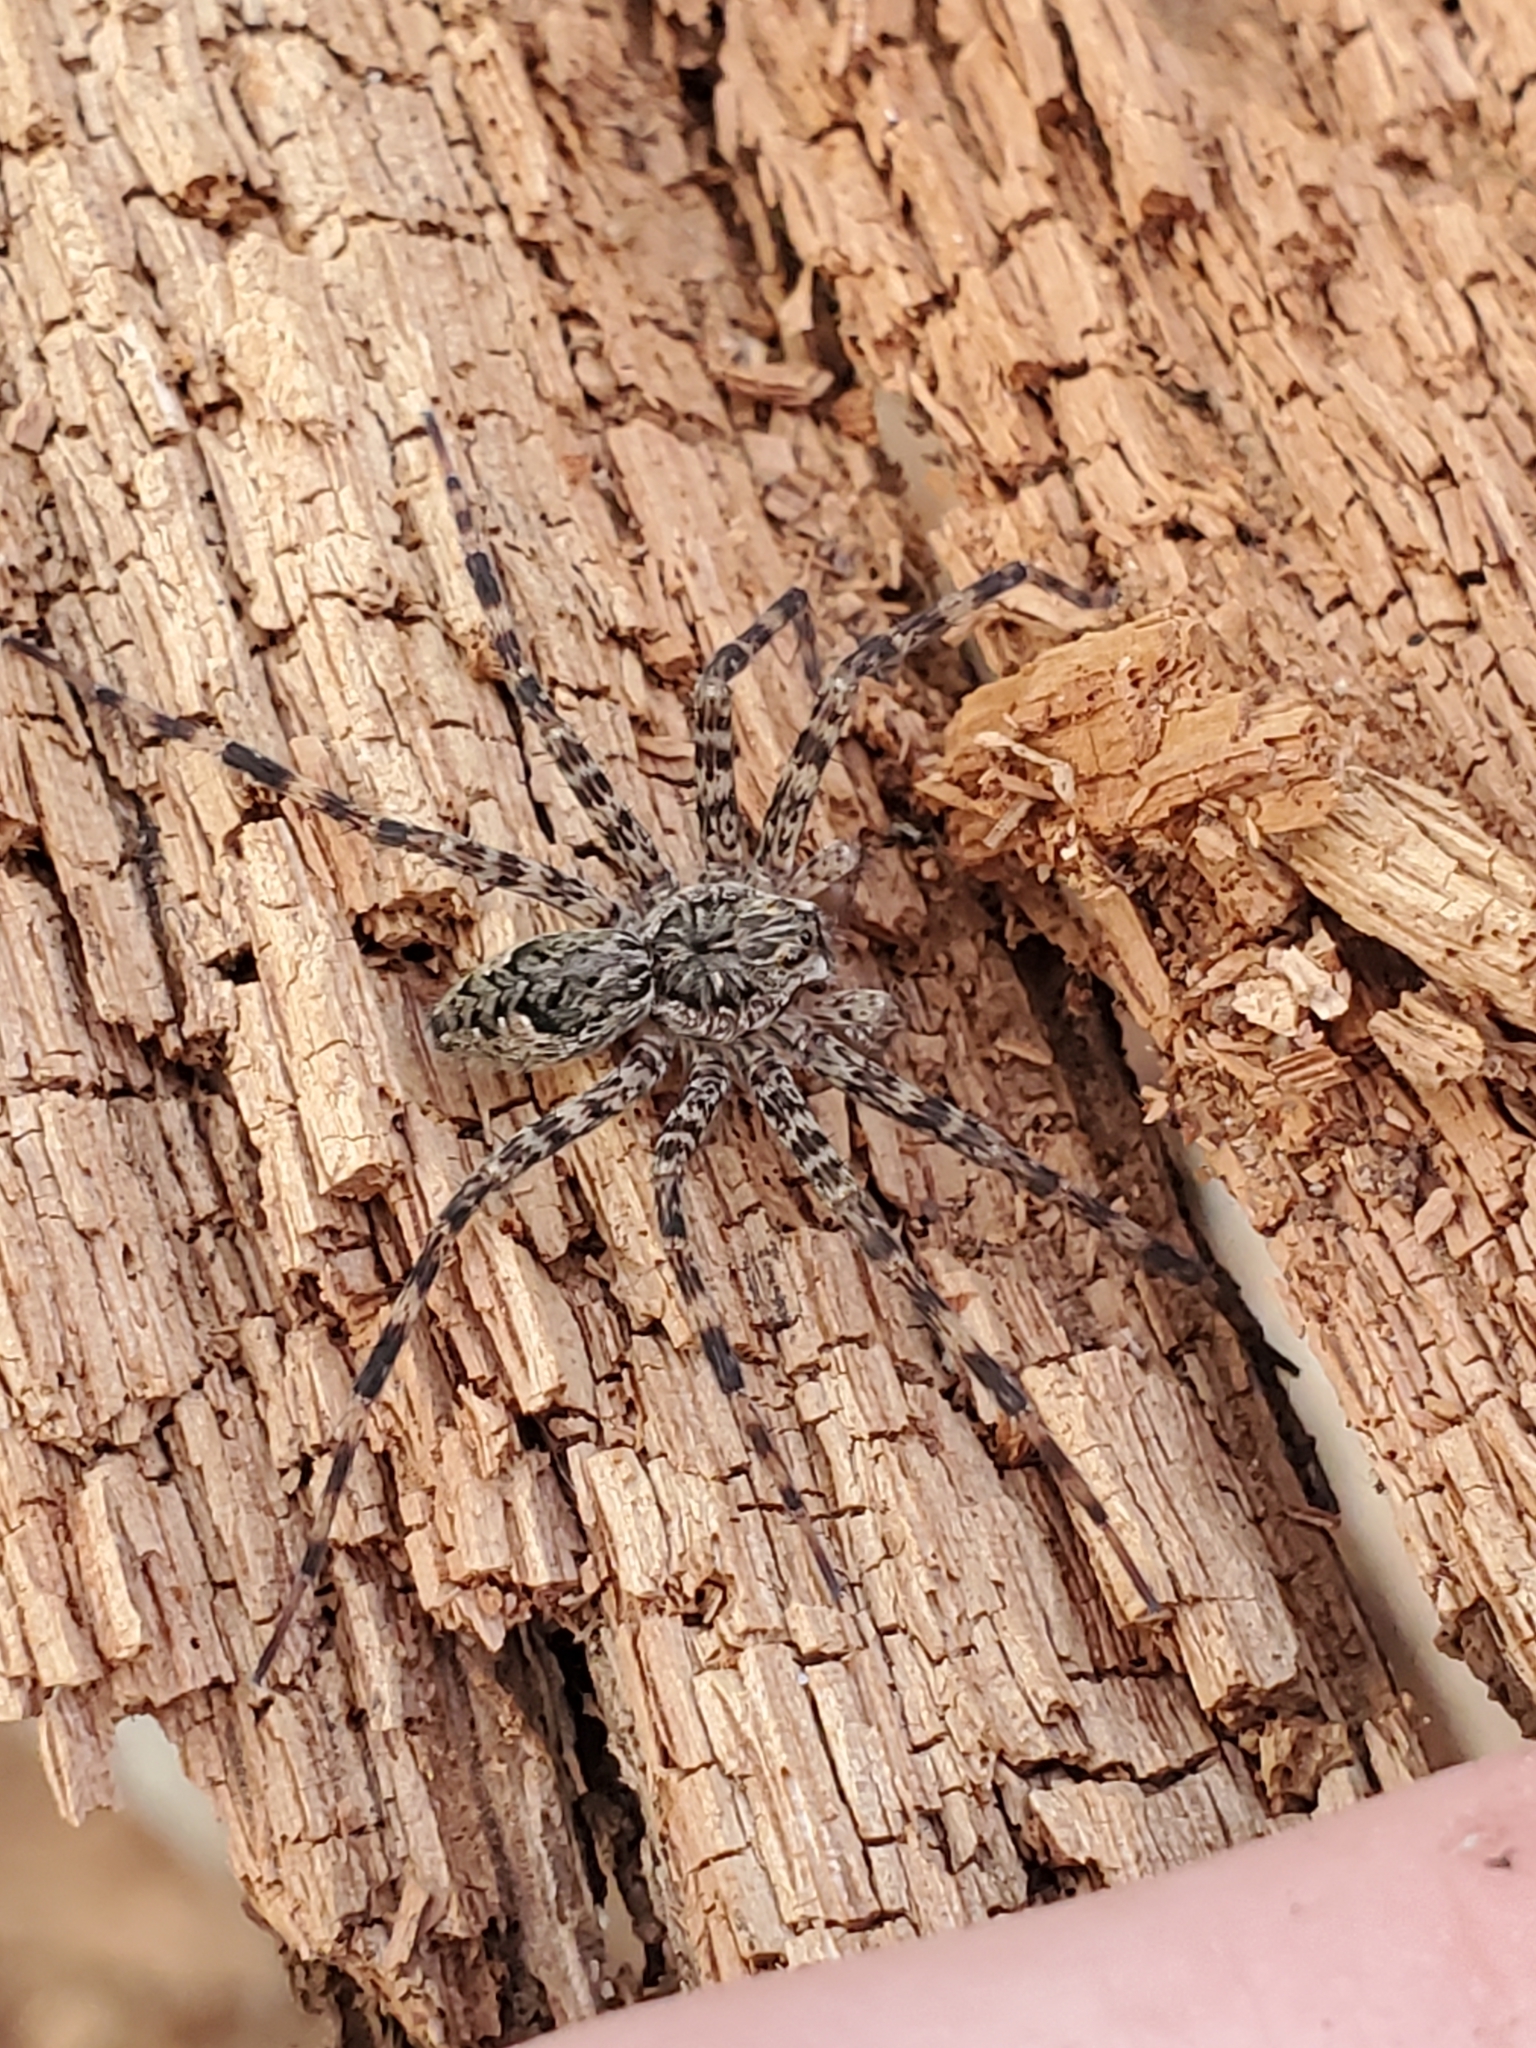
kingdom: Animalia
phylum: Arthropoda
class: Arachnida
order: Araneae
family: Pisauridae
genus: Dolomedes
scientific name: Dolomedes tenebrosus
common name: Dark fishing spider
